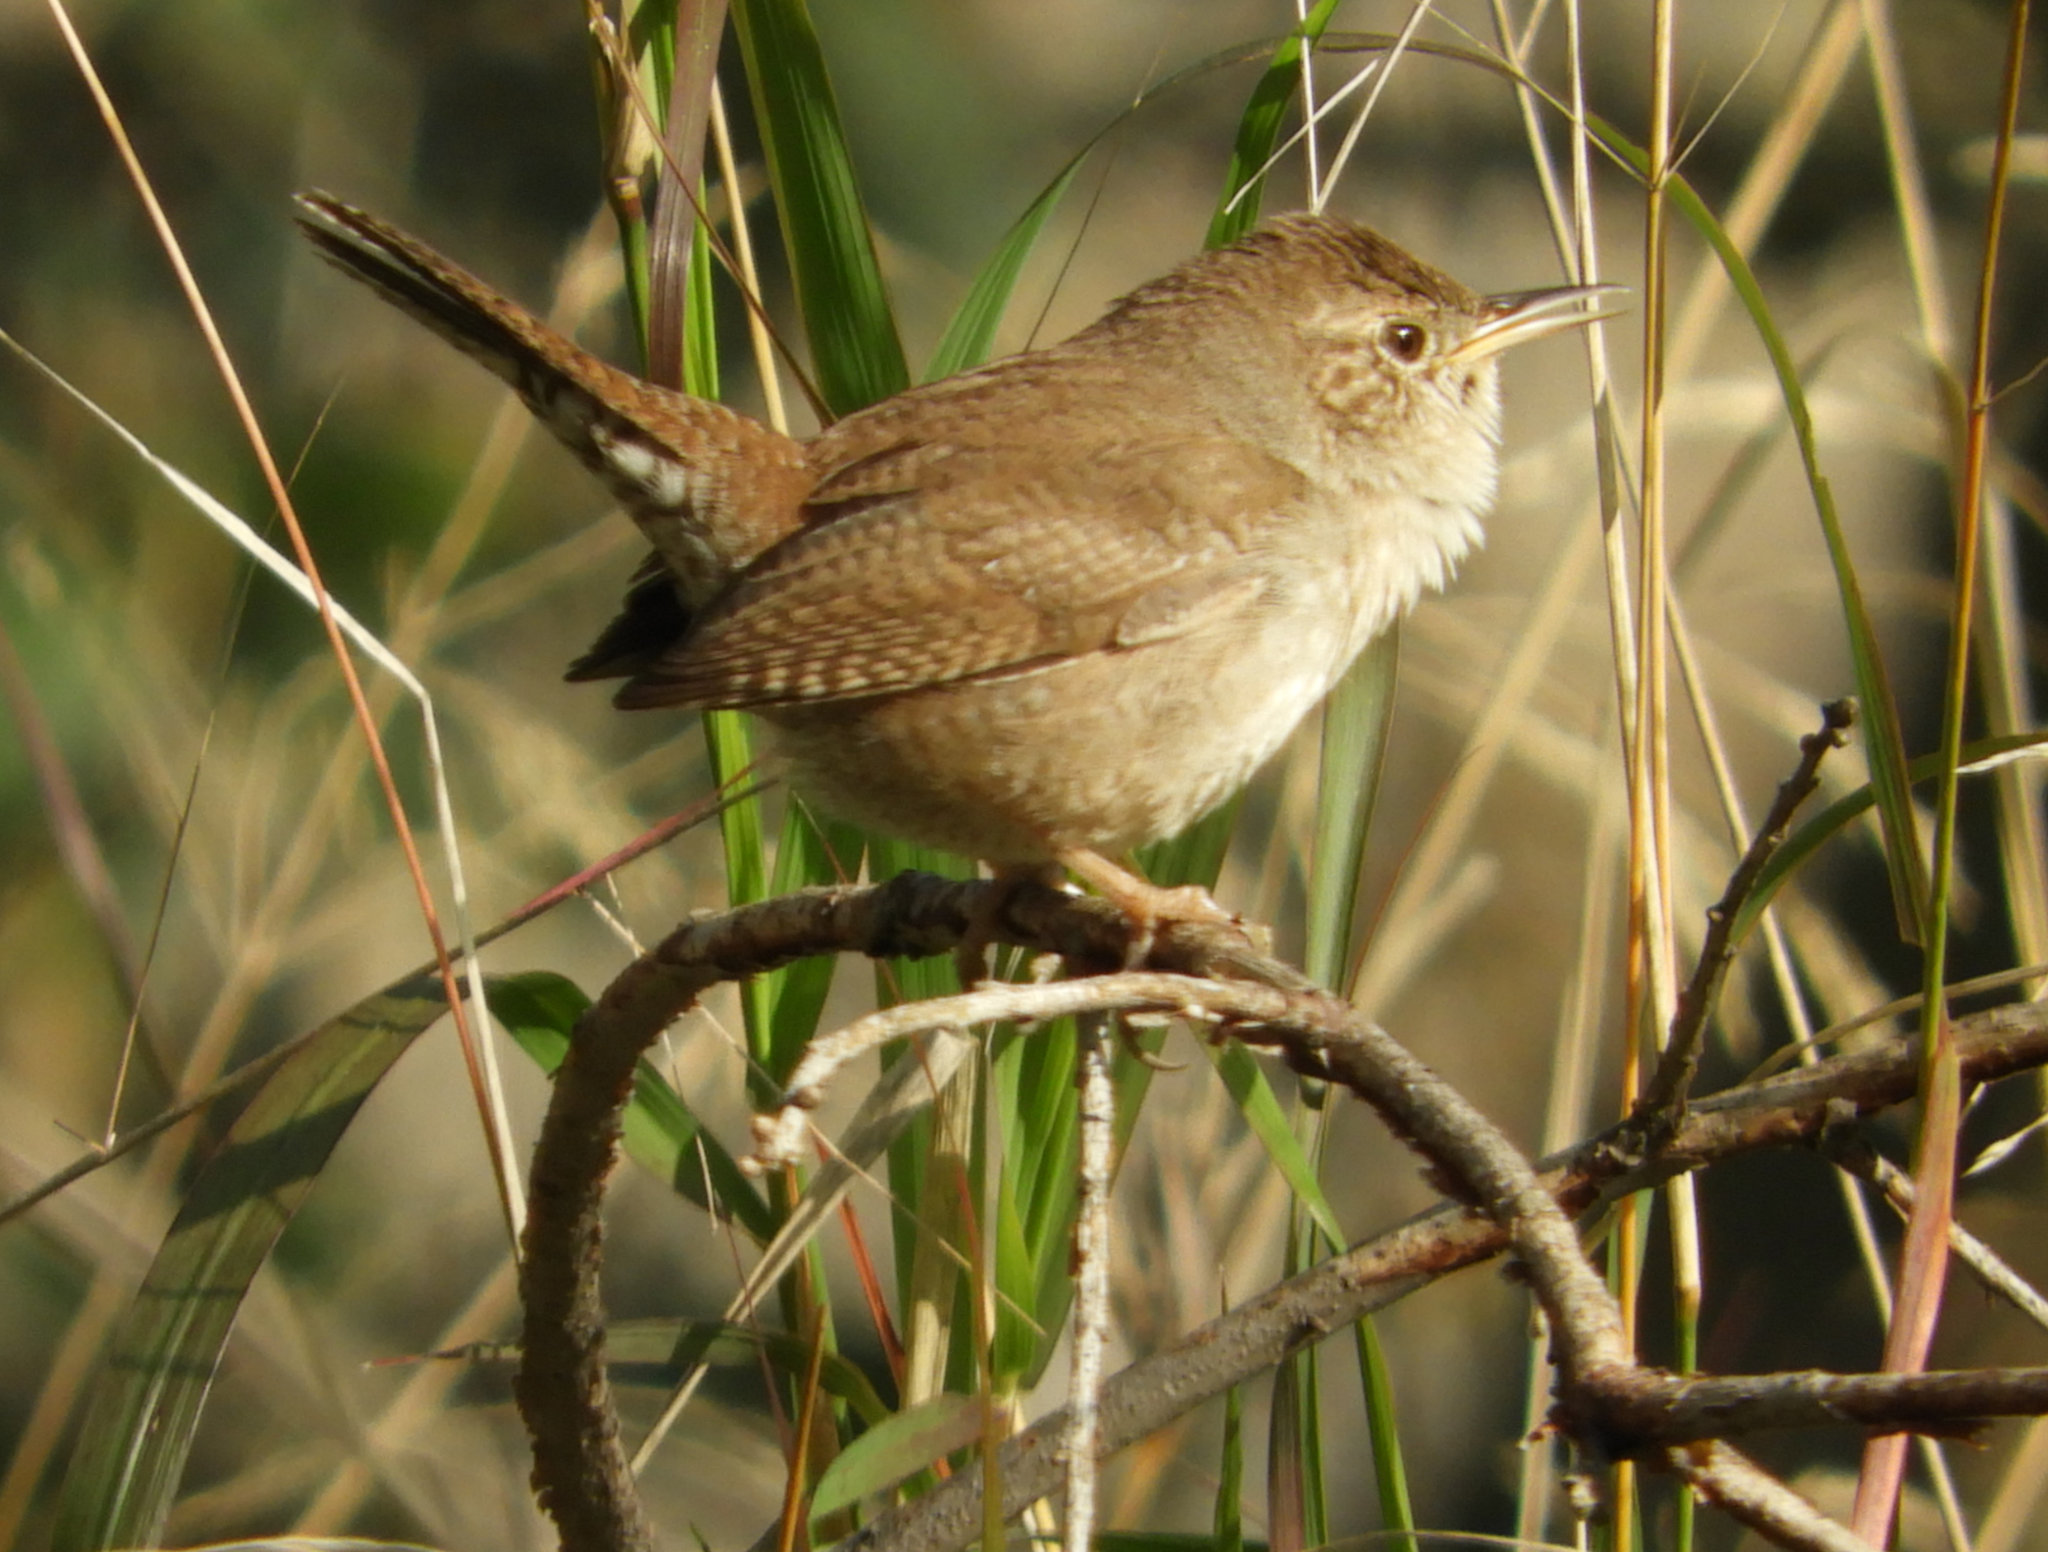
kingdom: Animalia
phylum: Chordata
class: Aves
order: Passeriformes
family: Troglodytidae
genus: Troglodytes
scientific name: Troglodytes aedon
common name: House wren
